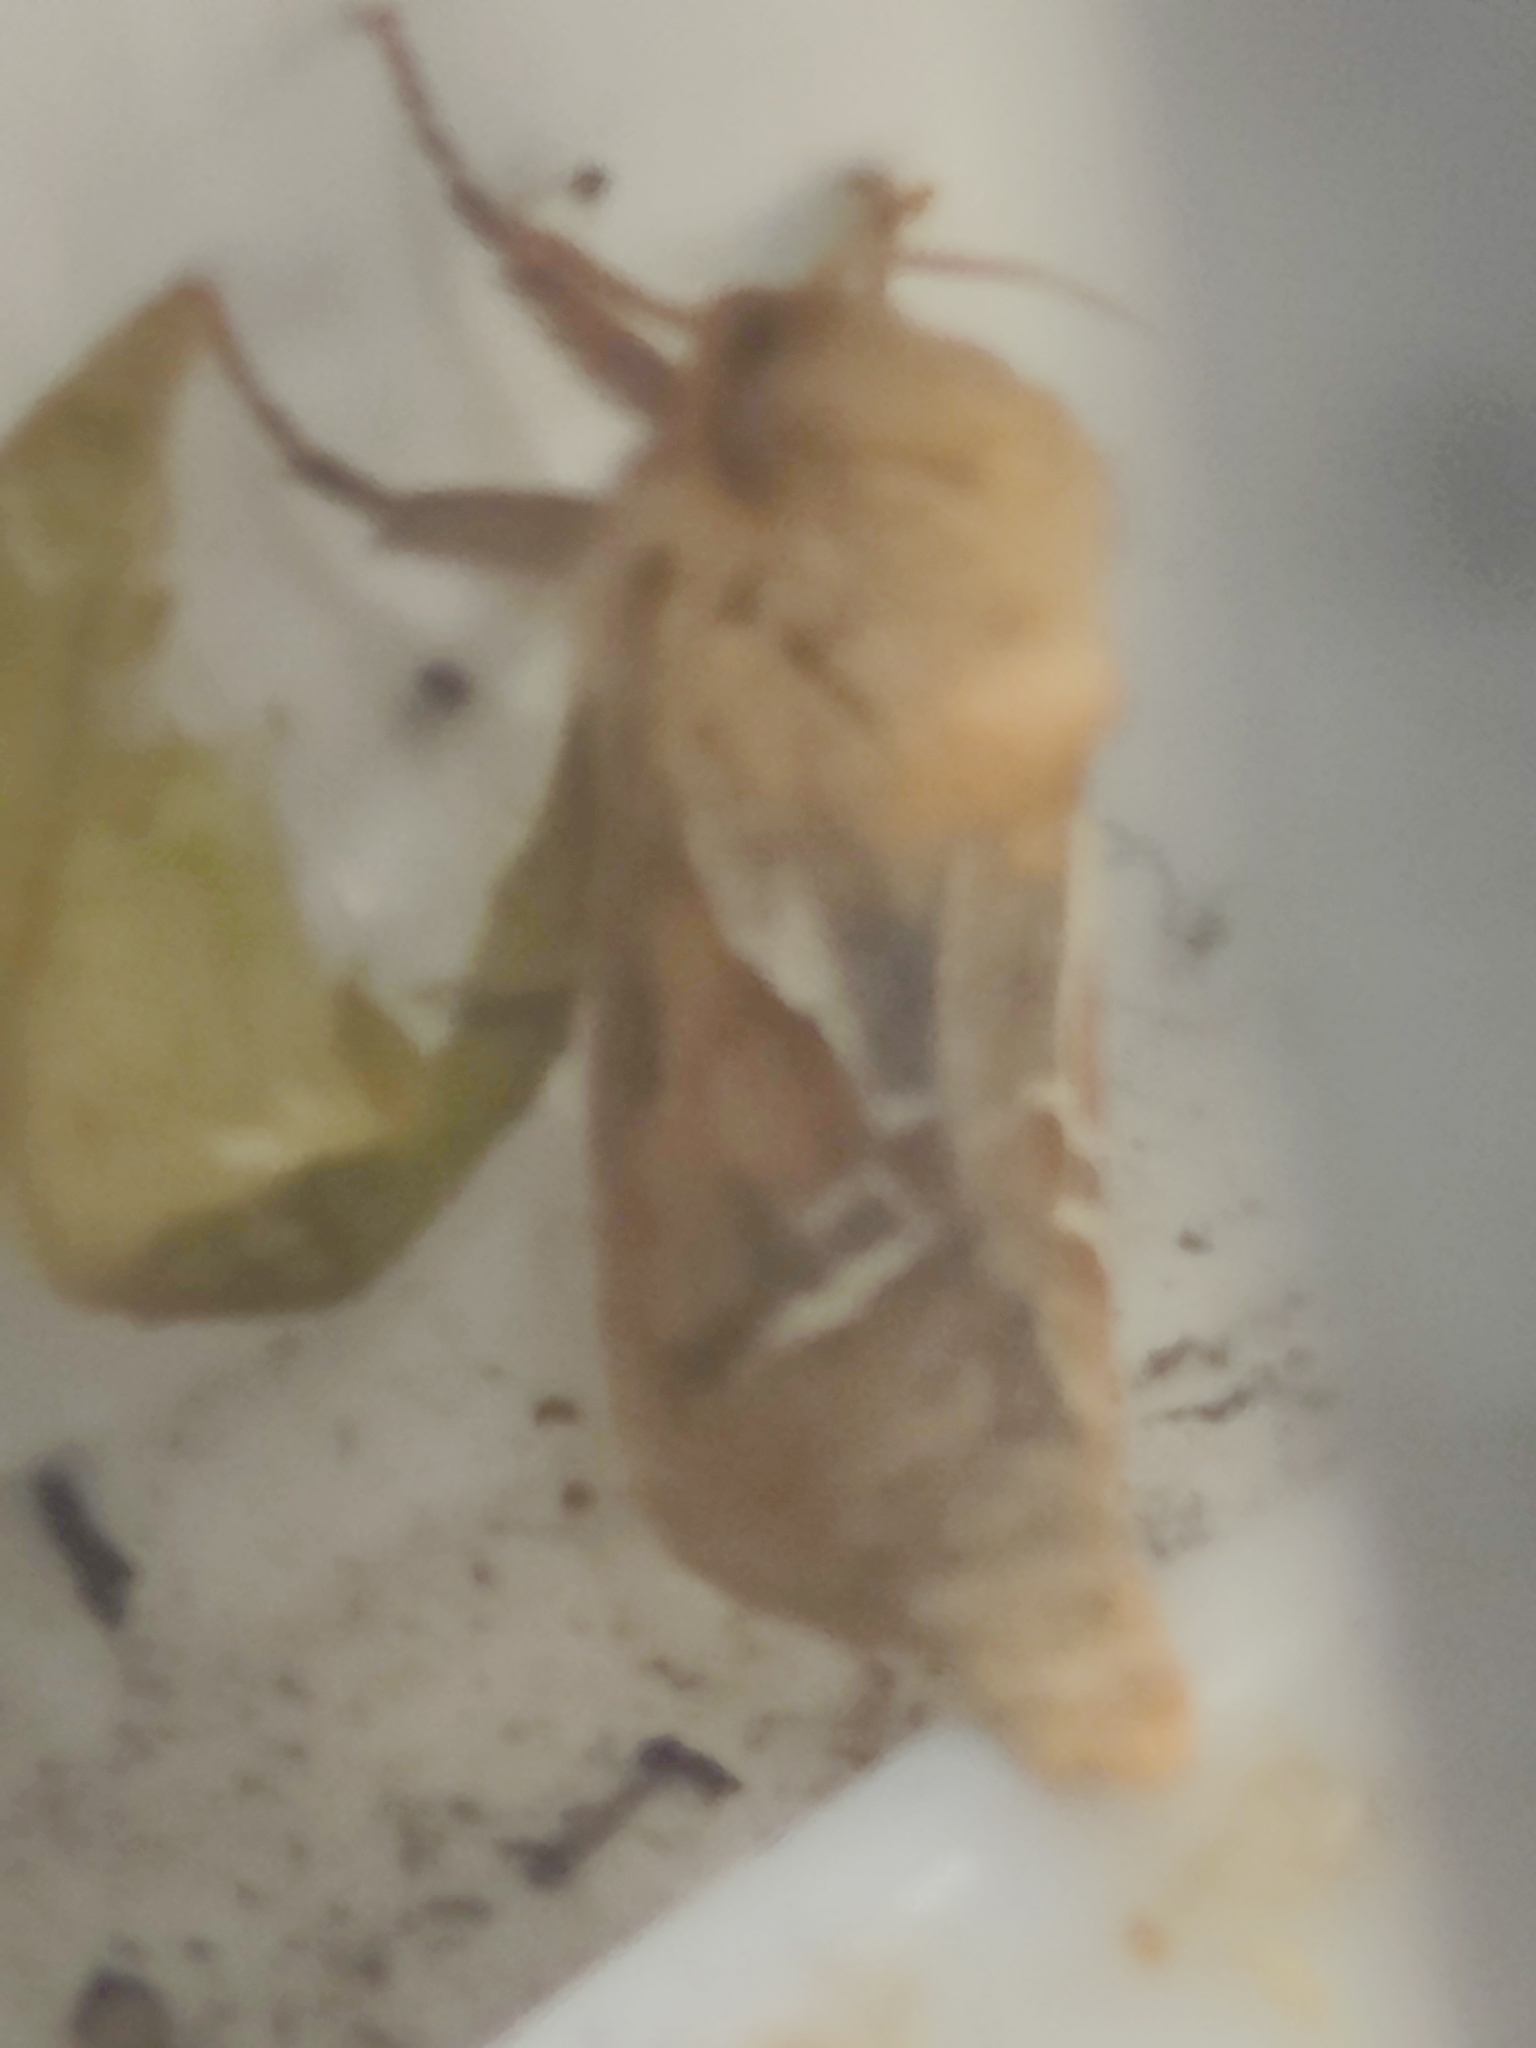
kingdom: Animalia
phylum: Arthropoda
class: Insecta
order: Lepidoptera
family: Hepialidae
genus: Triodia
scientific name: Triodia sylvina
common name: Orange swift
